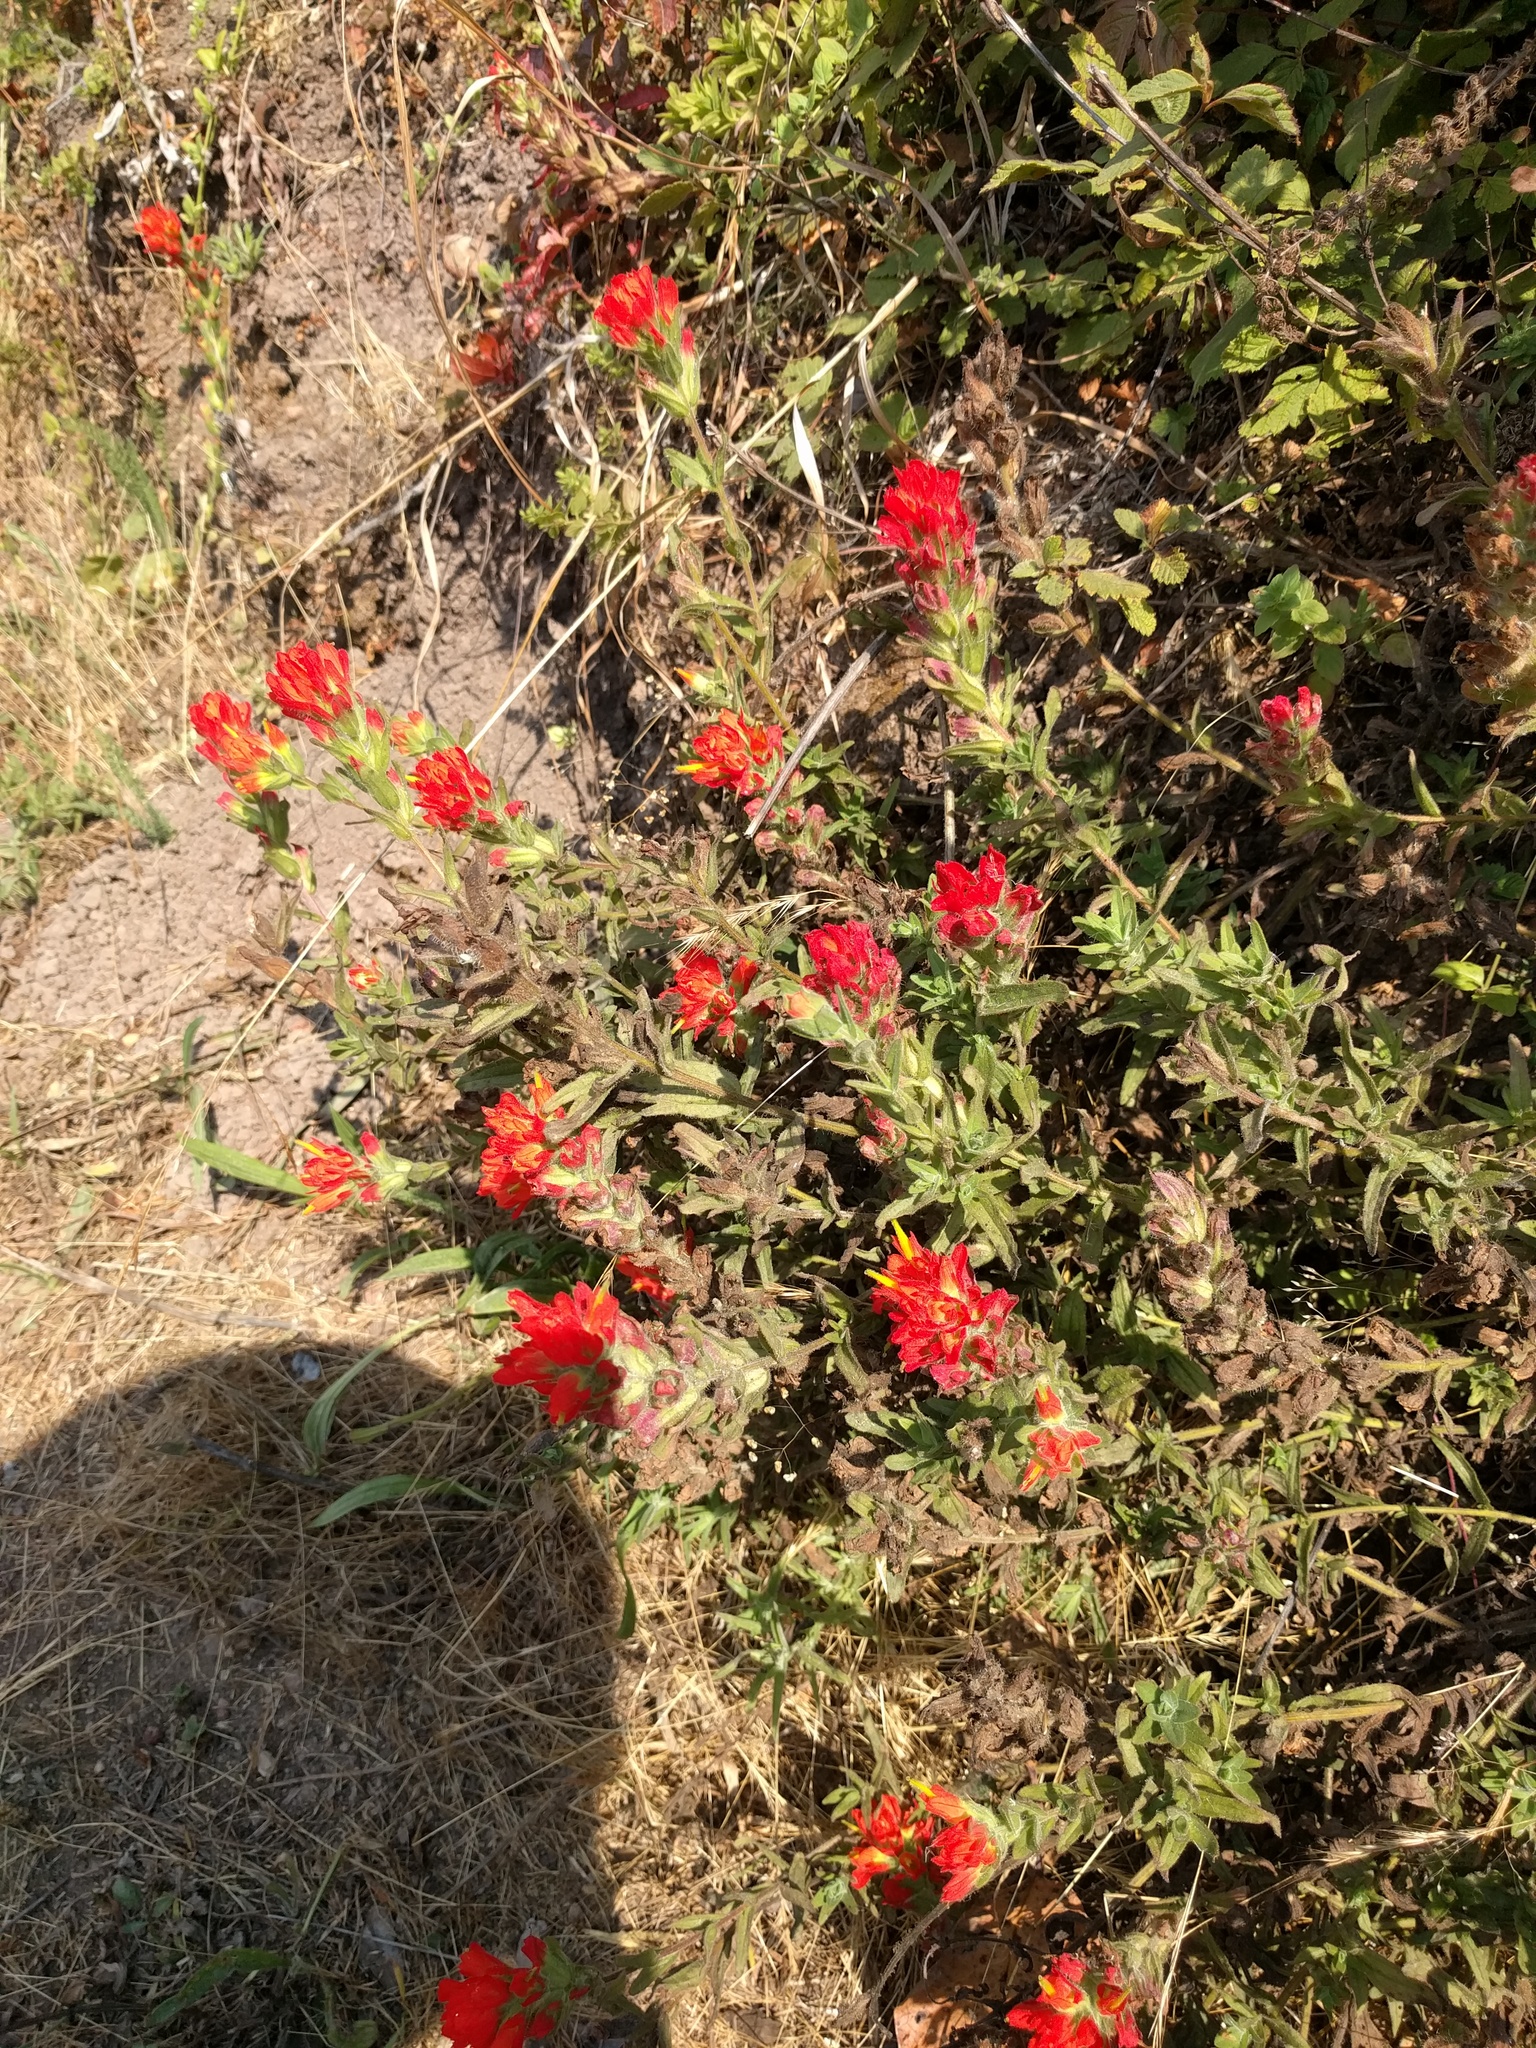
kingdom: Plantae
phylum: Tracheophyta
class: Magnoliopsida
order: Lamiales
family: Orobanchaceae
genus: Castilleja
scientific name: Castilleja affinis
